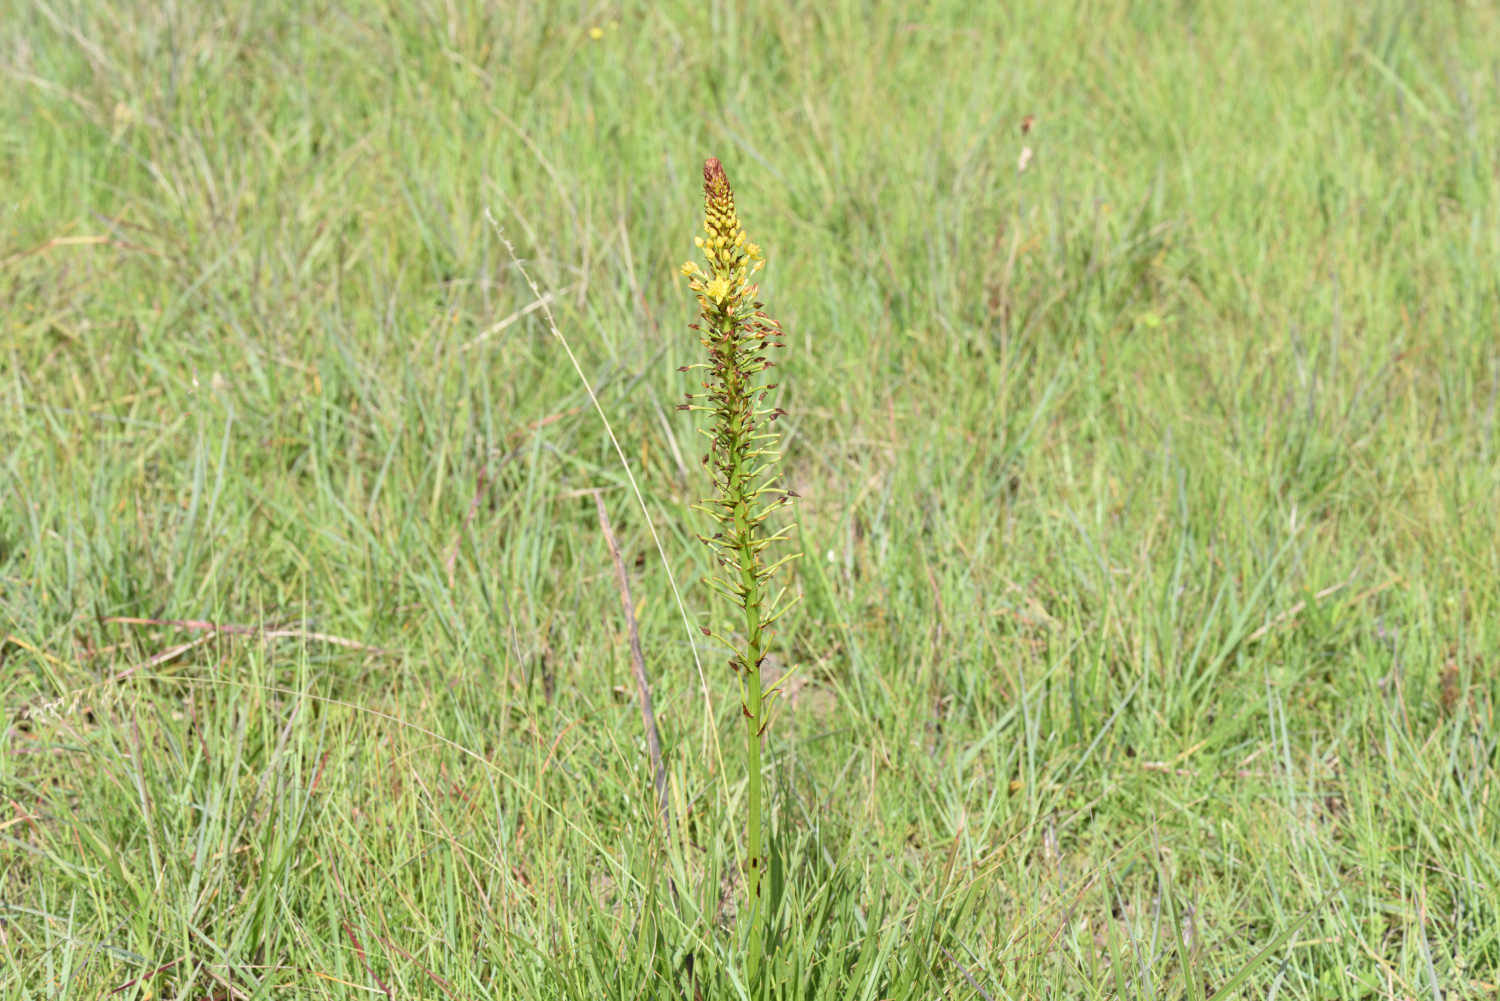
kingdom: Plantae
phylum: Tracheophyta
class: Liliopsida
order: Asparagales
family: Asphodelaceae
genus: Bulbine
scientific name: Bulbine abyssinica
